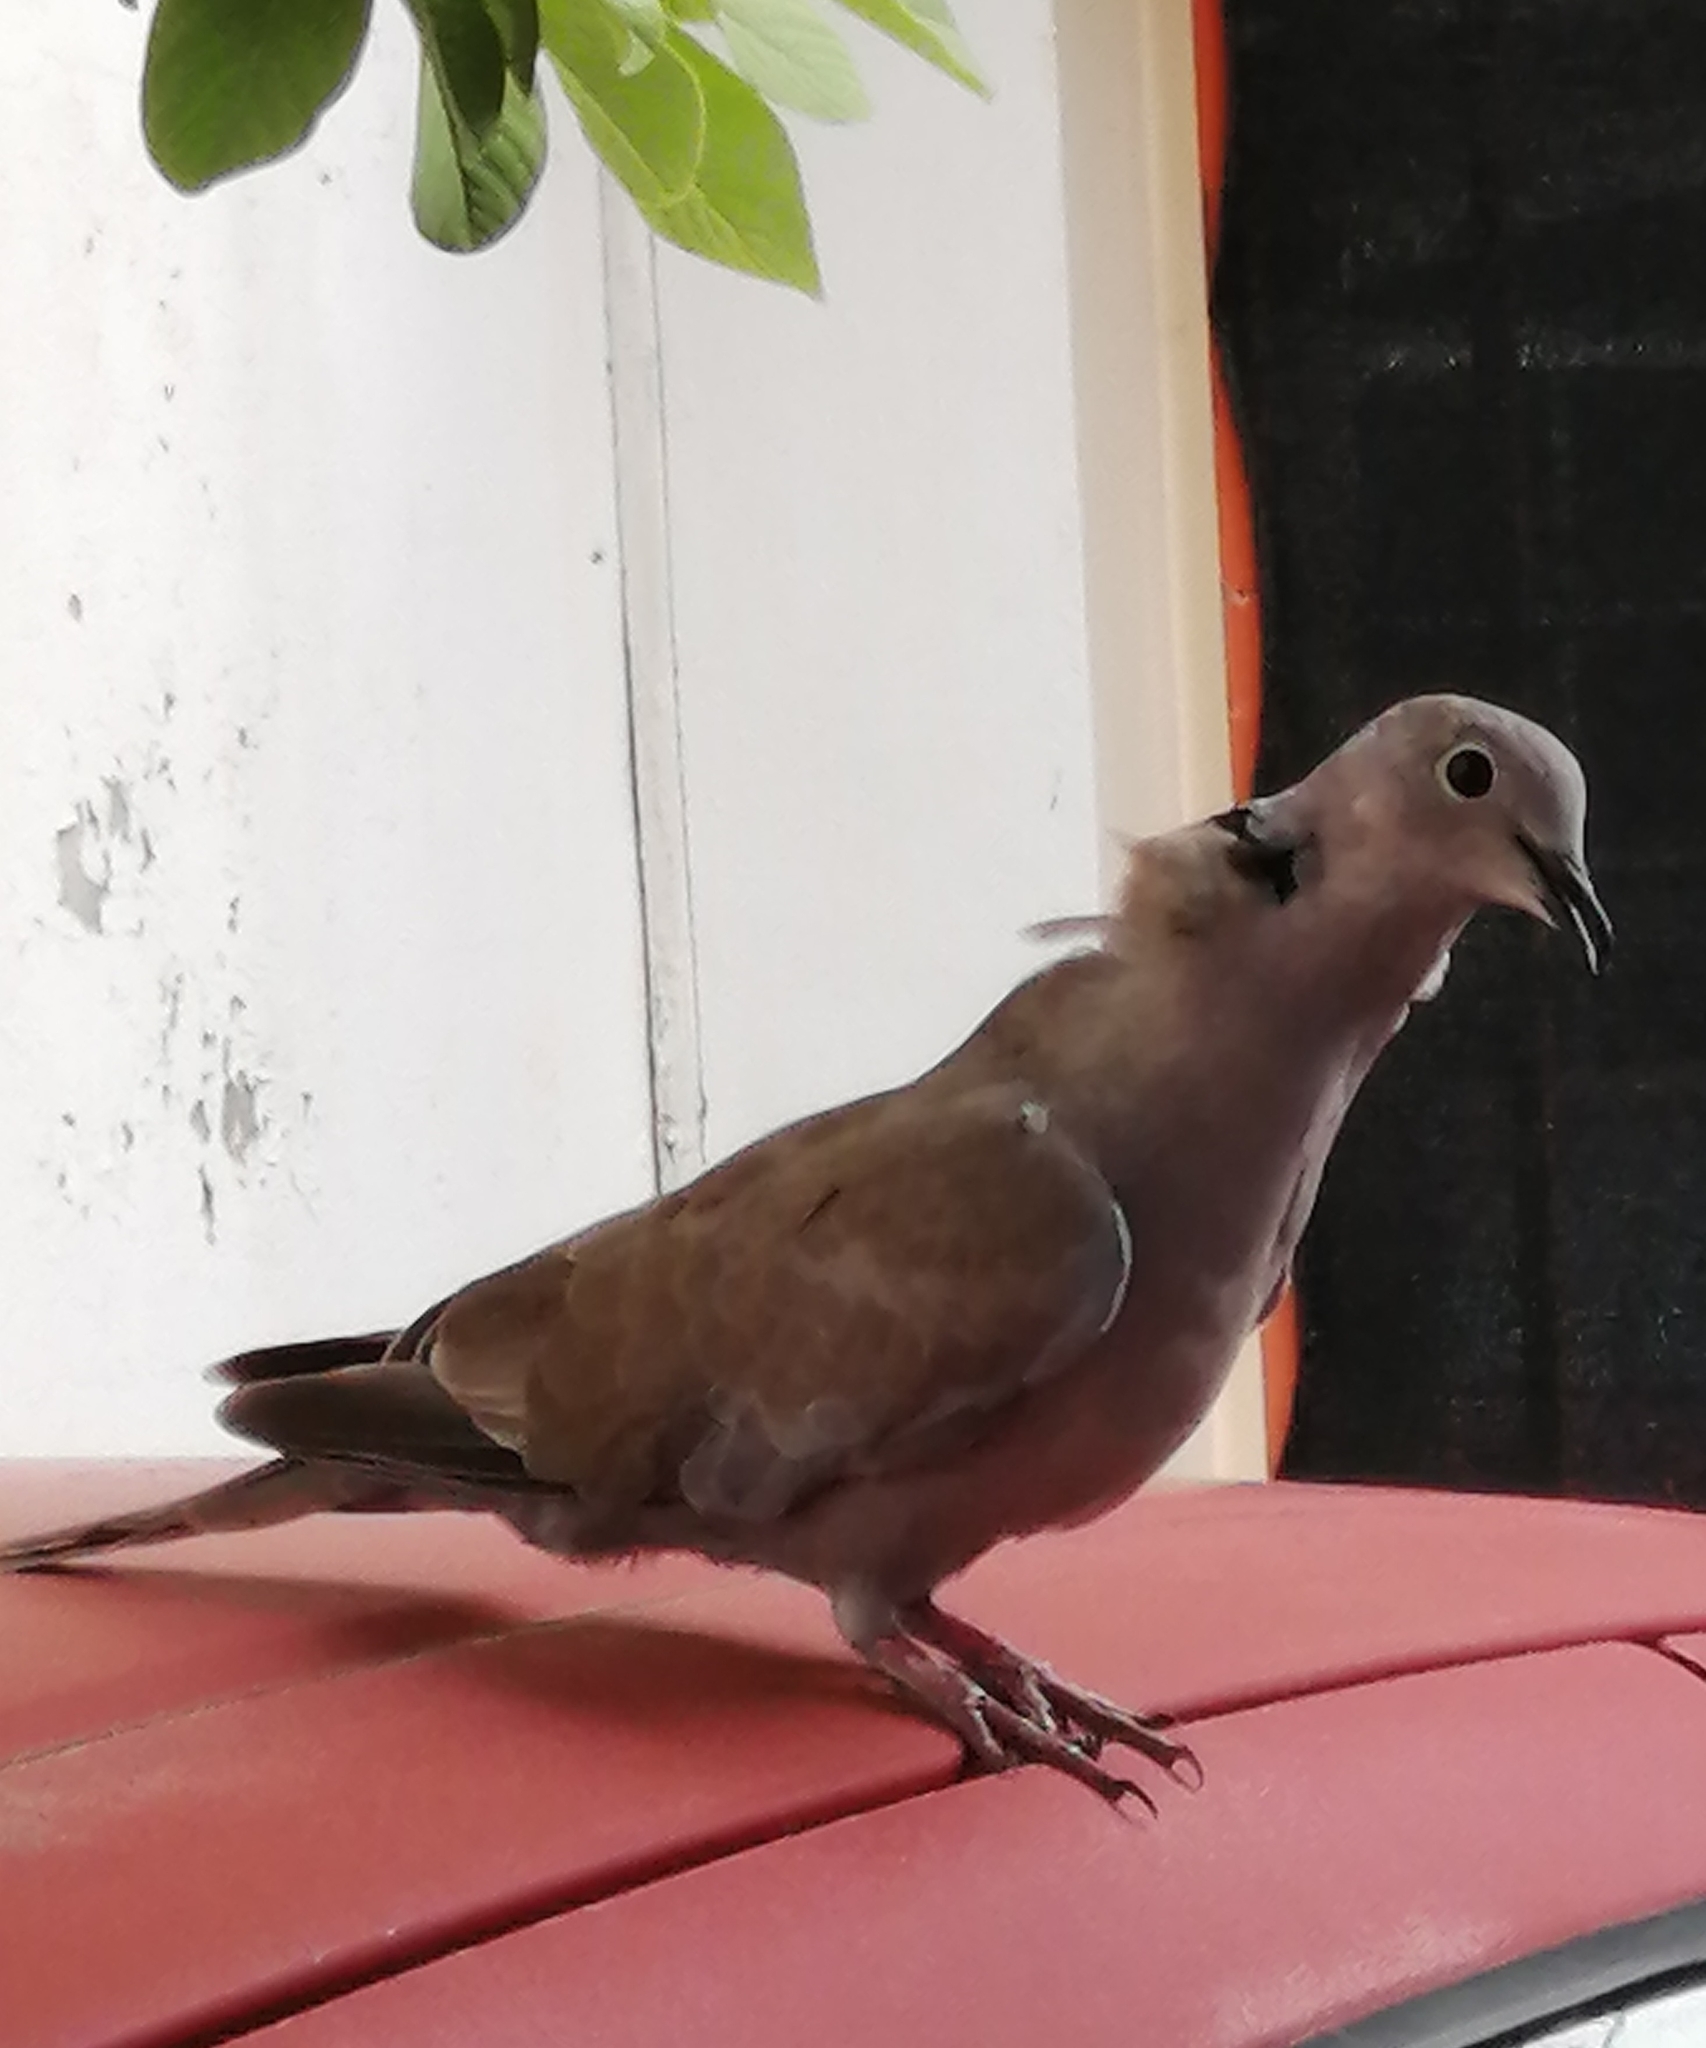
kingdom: Animalia
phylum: Chordata
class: Aves
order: Columbiformes
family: Columbidae
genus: Streptopelia
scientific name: Streptopelia decaocto
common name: Eurasian collared dove
